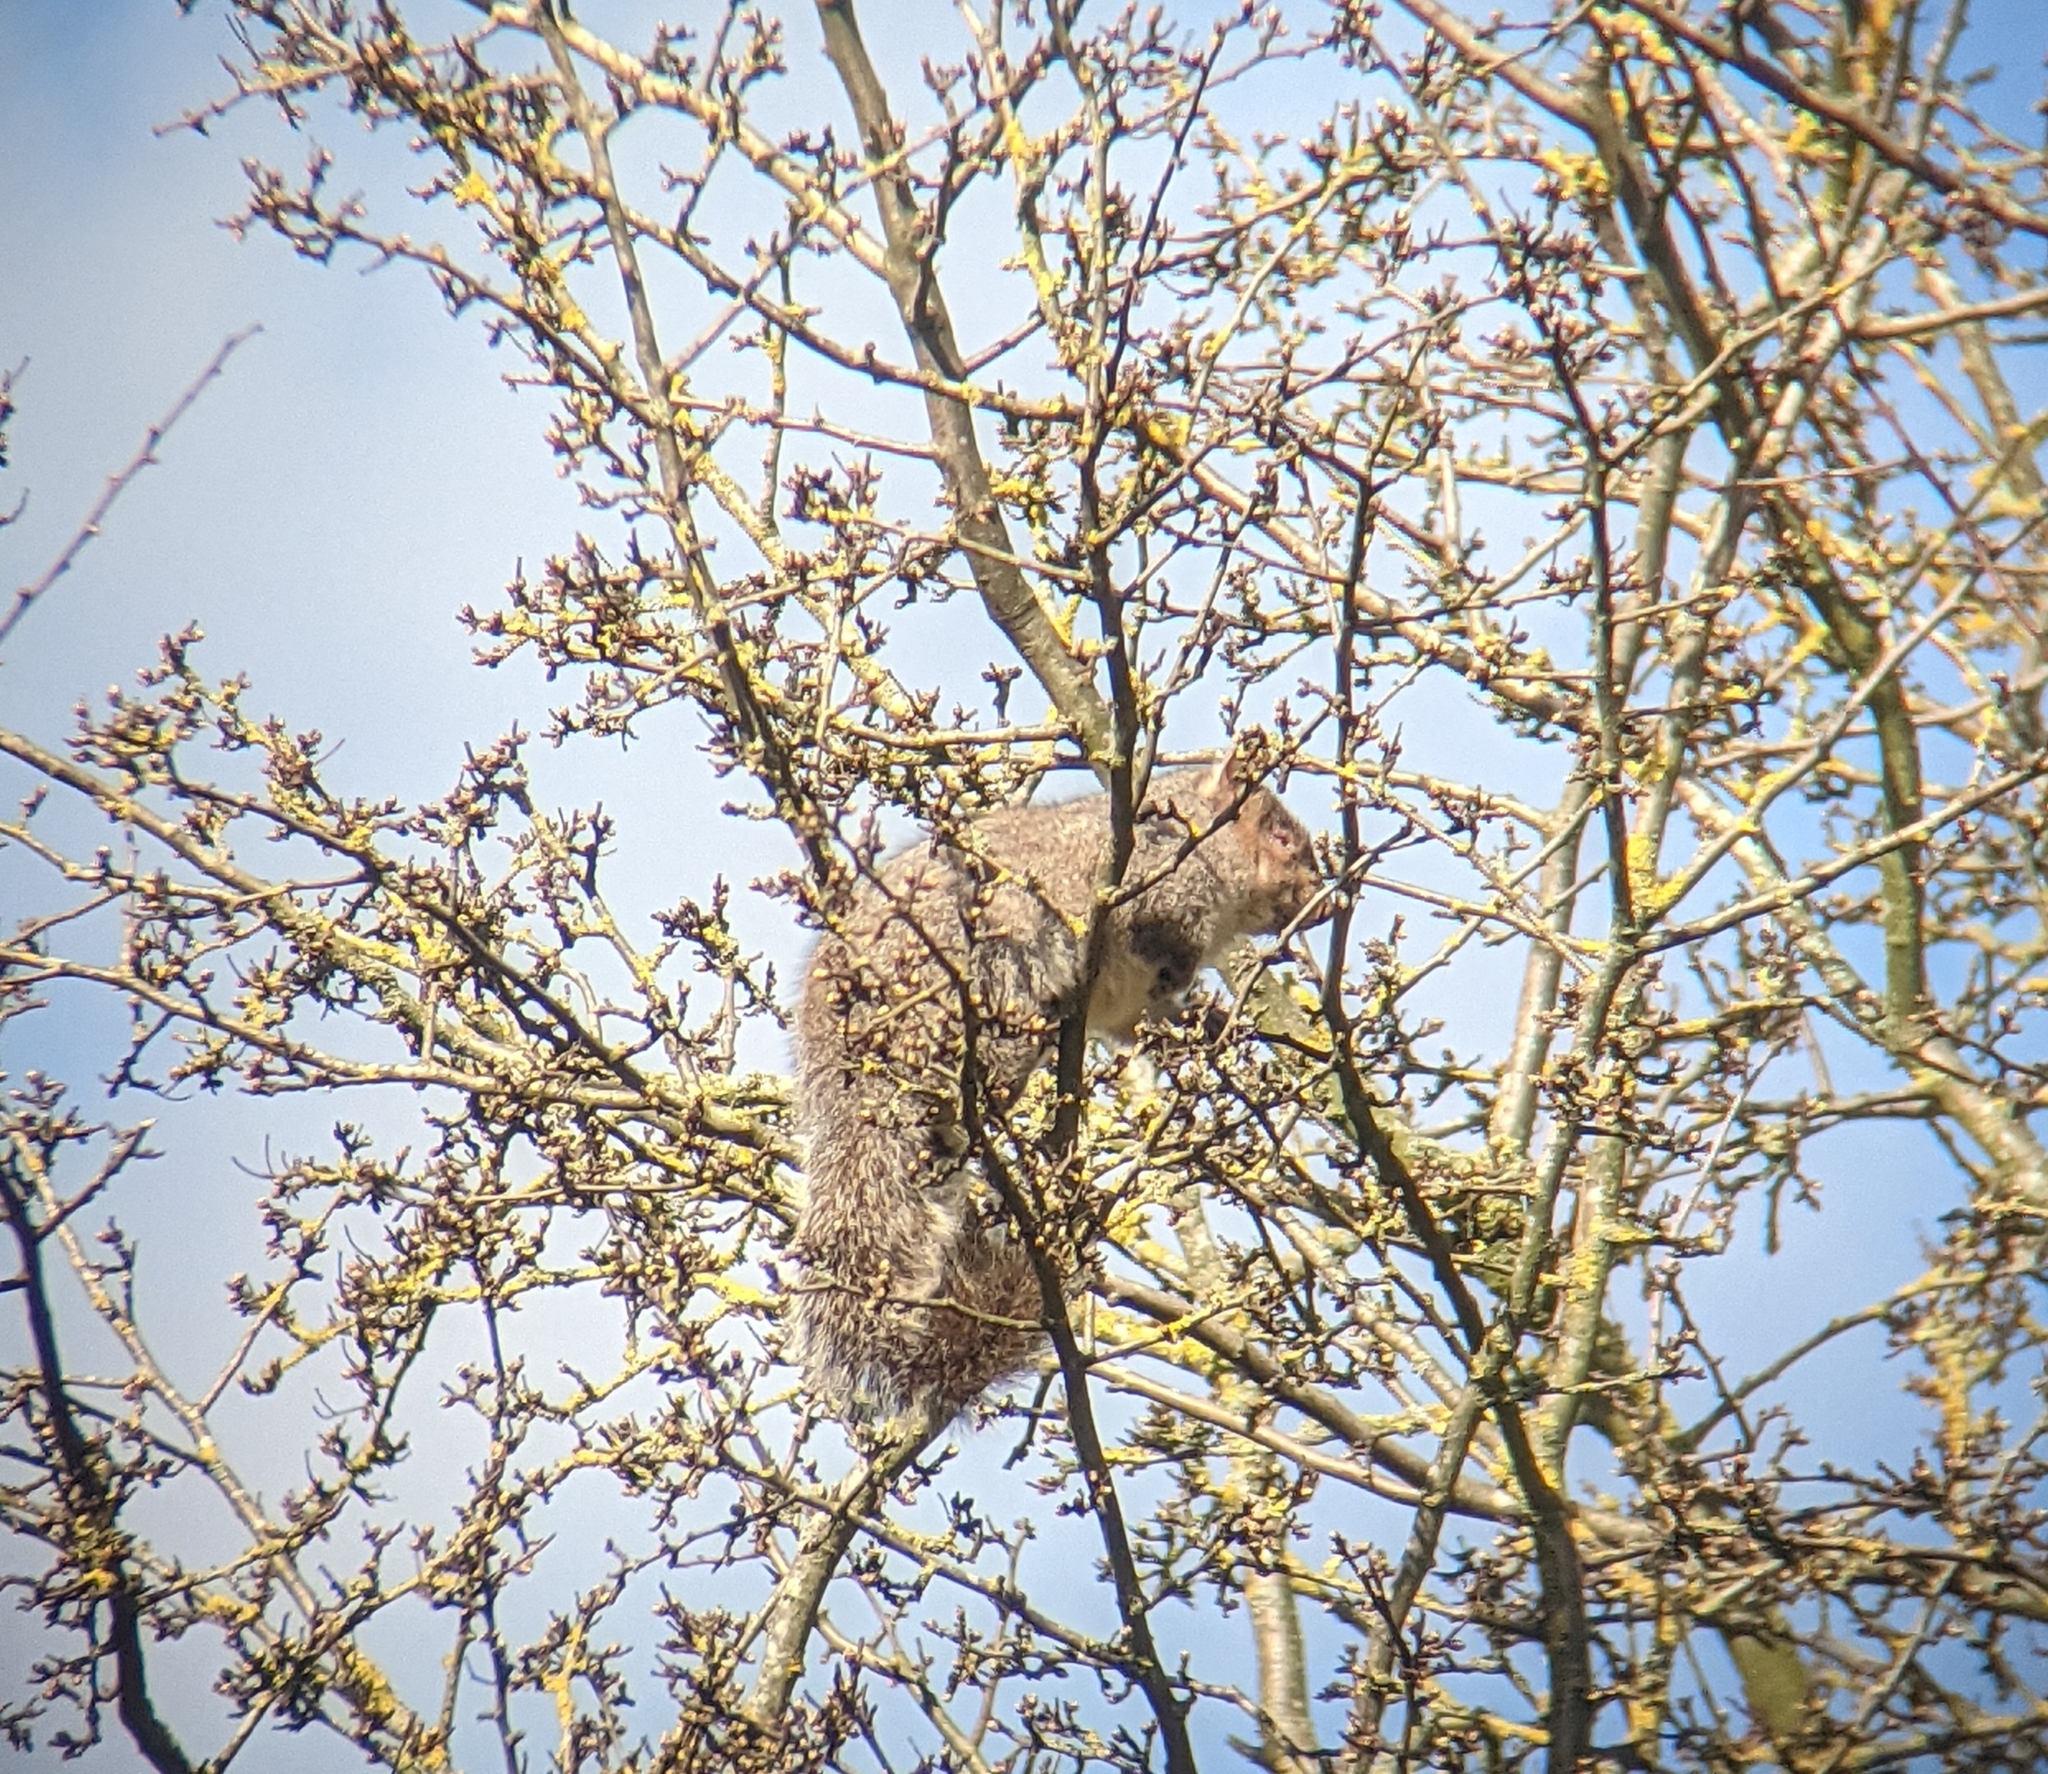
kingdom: Animalia
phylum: Chordata
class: Mammalia
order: Rodentia
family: Sciuridae
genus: Sciurus
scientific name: Sciurus carolinensis
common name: Eastern gray squirrel
